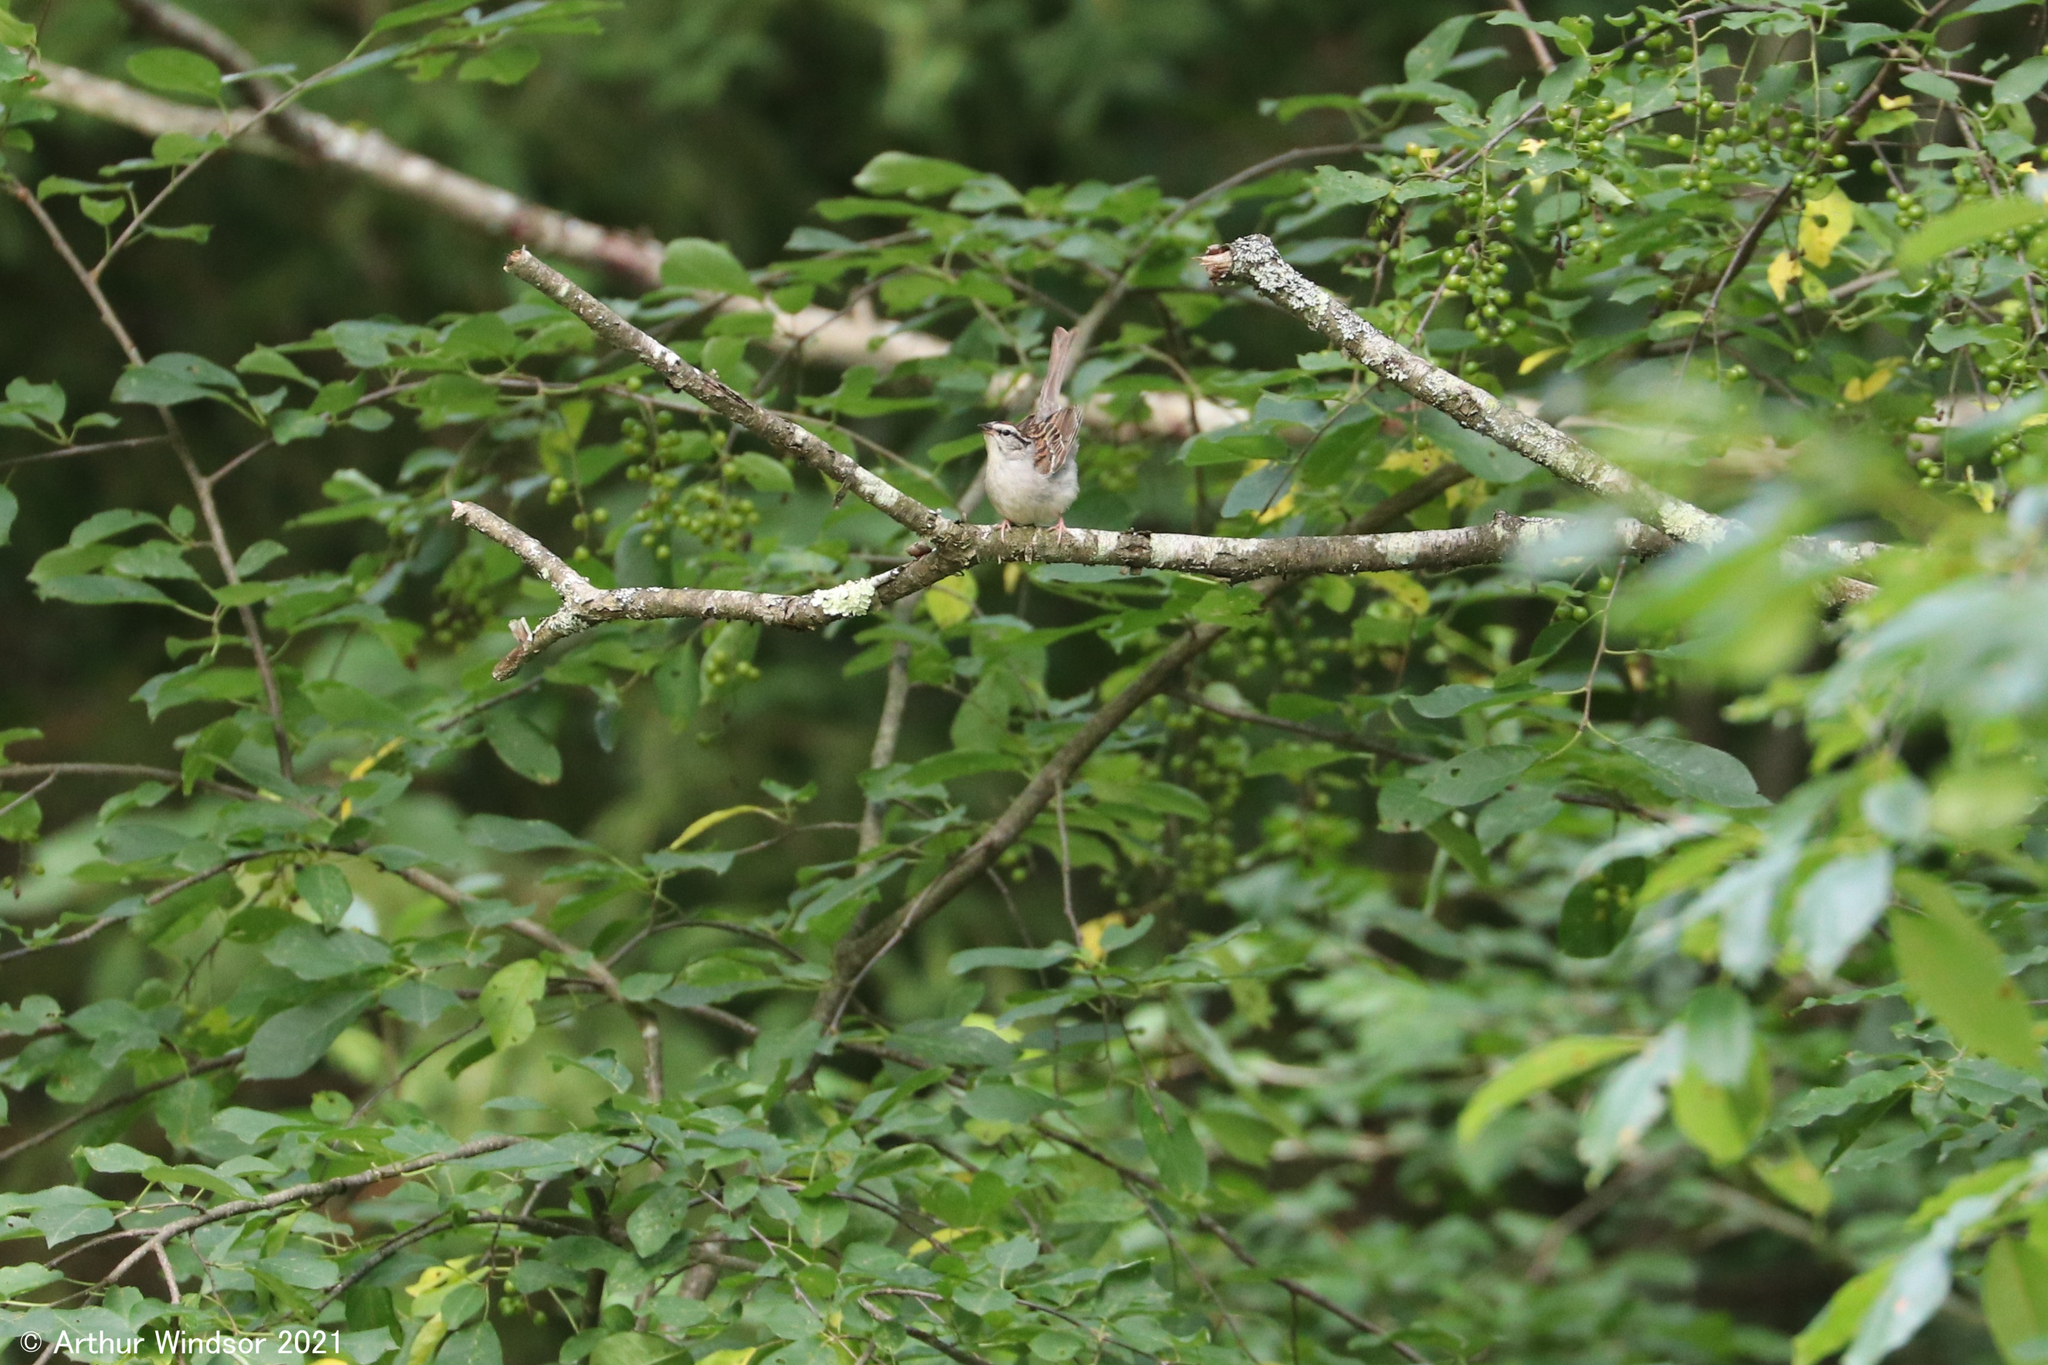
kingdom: Animalia
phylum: Chordata
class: Aves
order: Passeriformes
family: Passerellidae
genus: Spizella
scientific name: Spizella passerina
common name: Chipping sparrow
